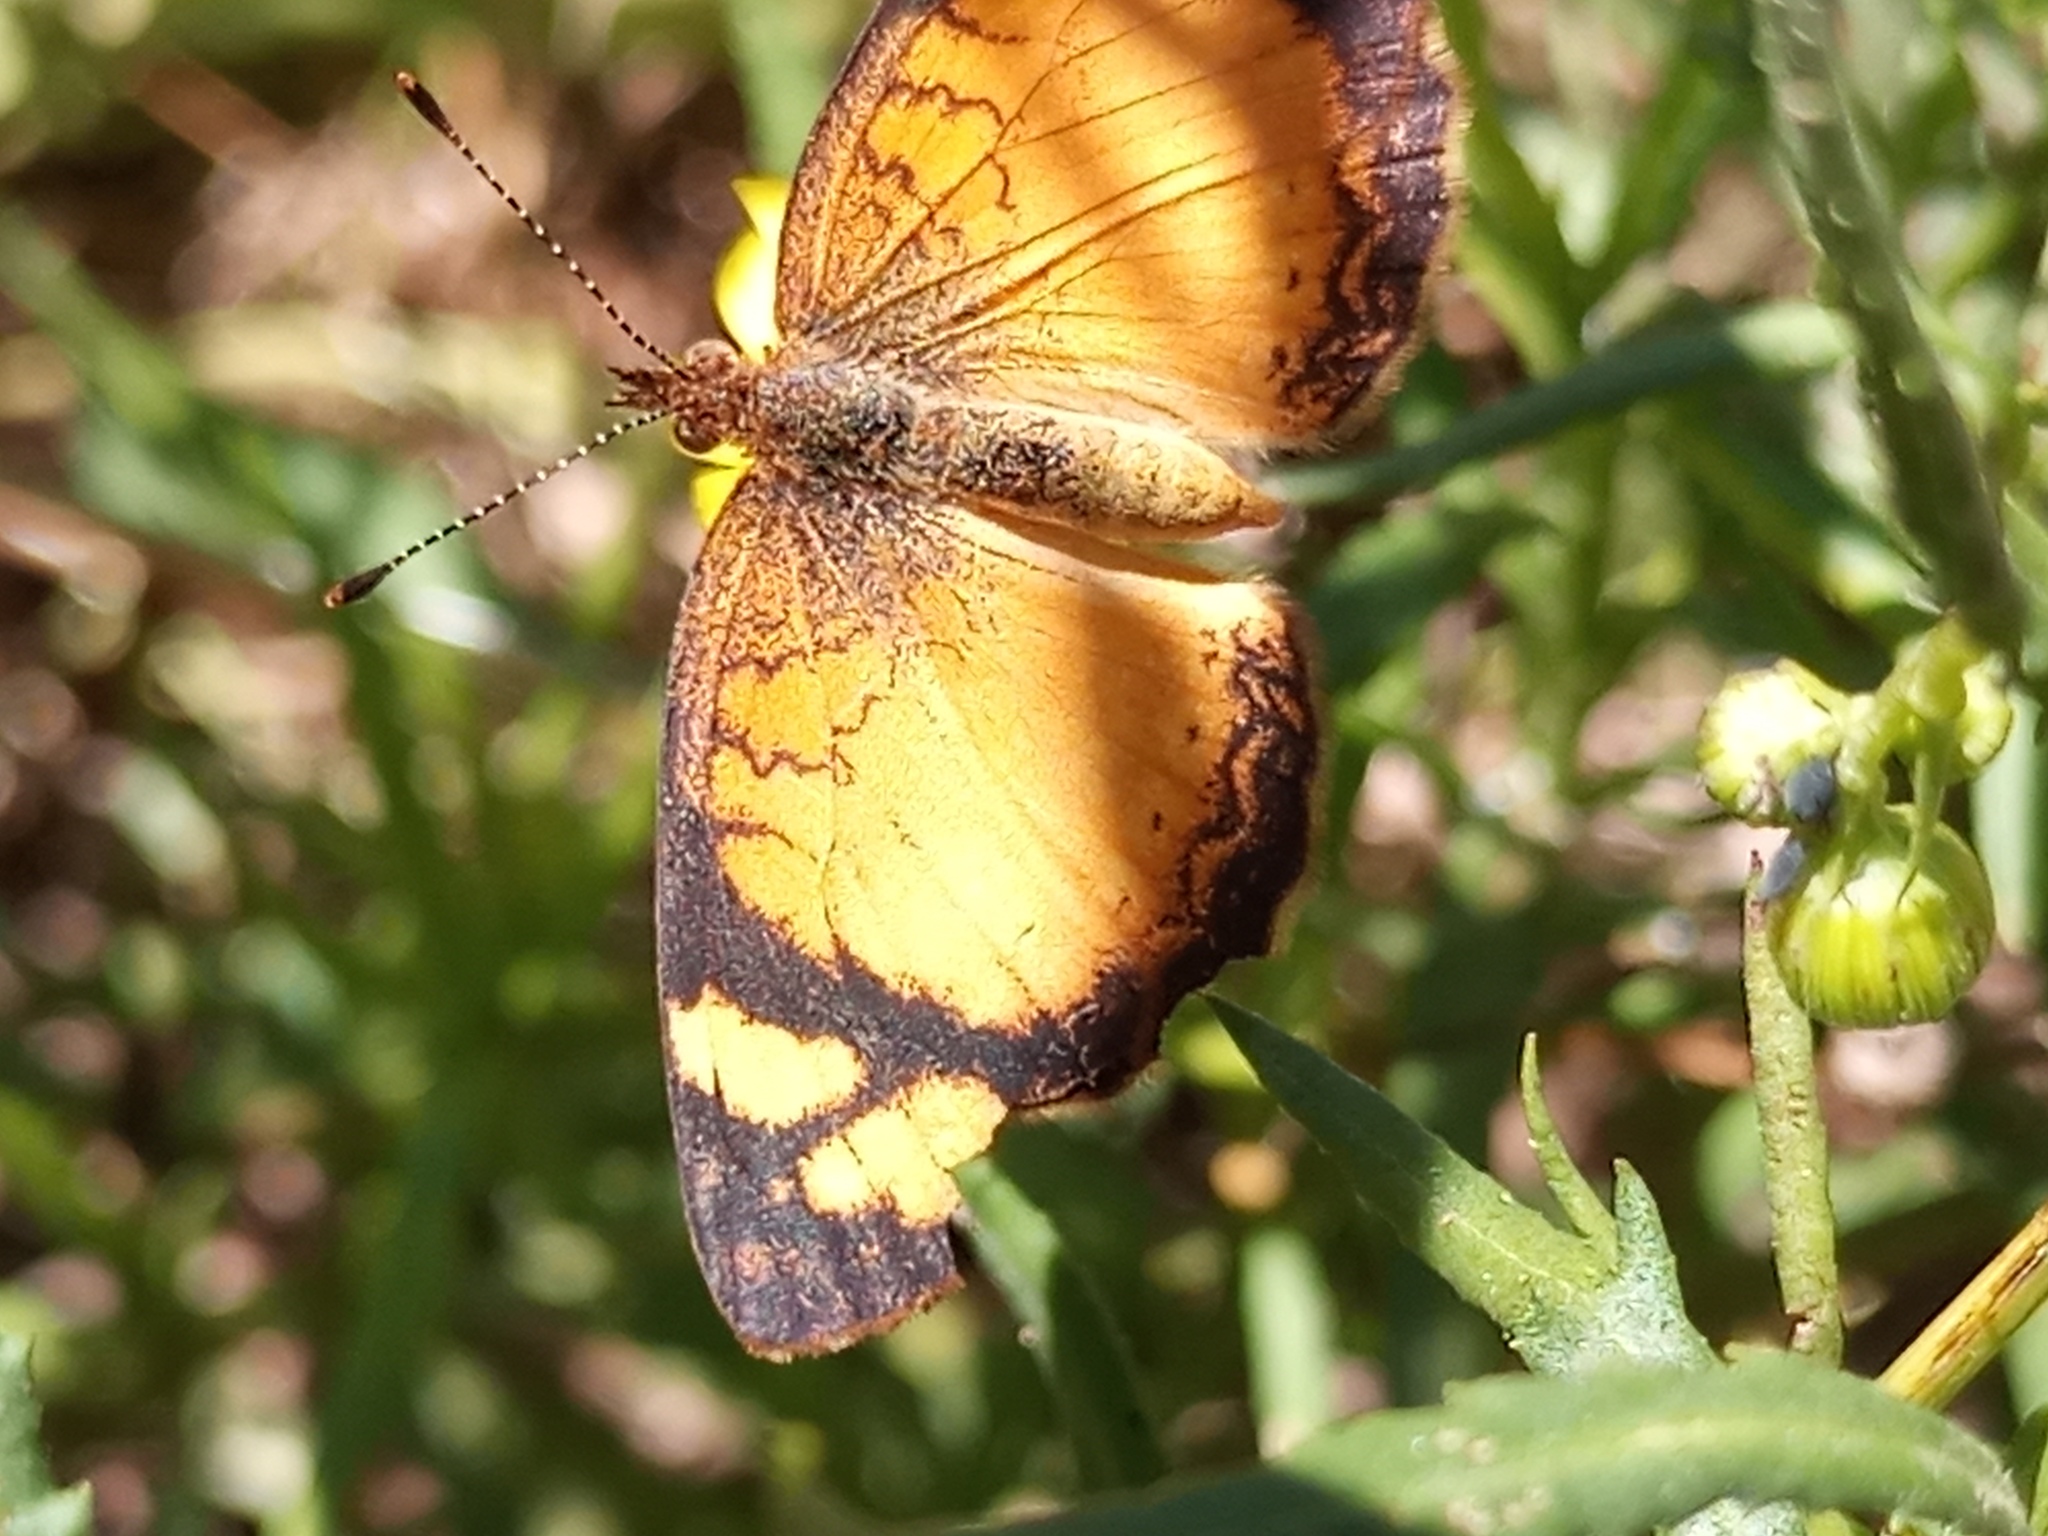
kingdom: Animalia
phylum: Arthropoda
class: Insecta
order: Lepidoptera
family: Nymphalidae
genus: Tegosa
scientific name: Tegosa claudina
